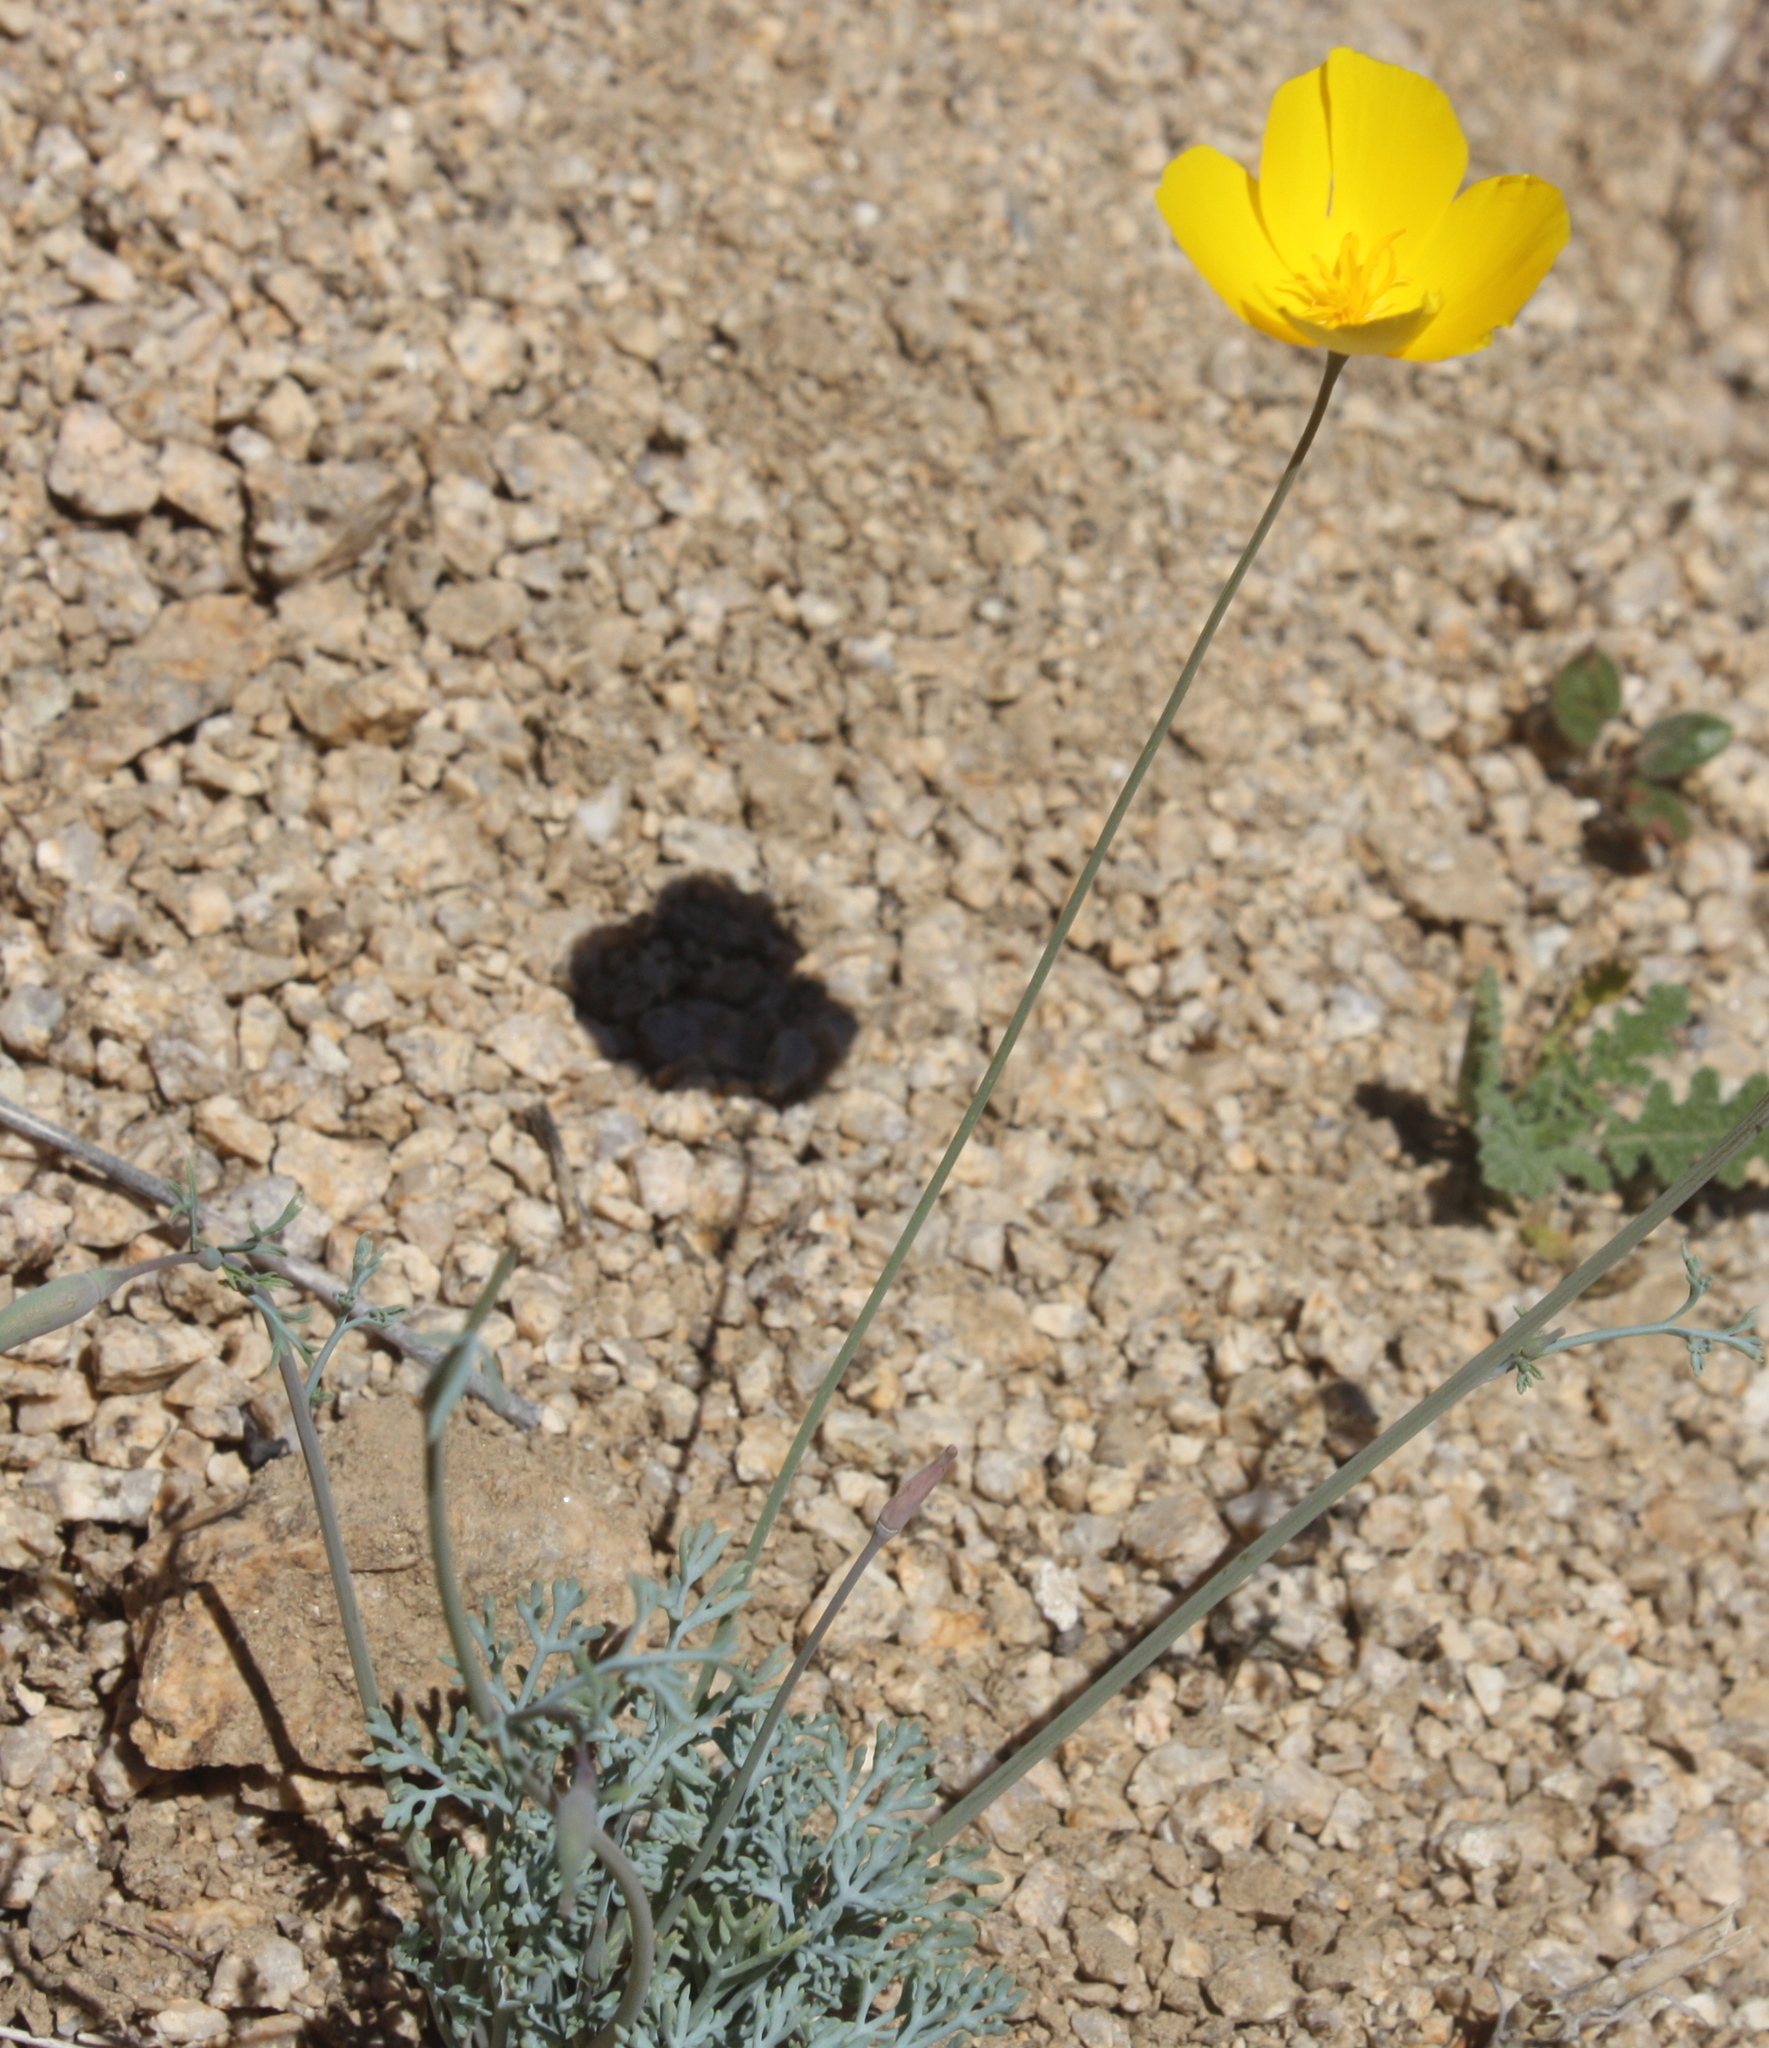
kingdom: Plantae
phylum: Tracheophyta
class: Magnoliopsida
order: Ranunculales
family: Papaveraceae
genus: Eschscholzia
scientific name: Eschscholzia parishii
